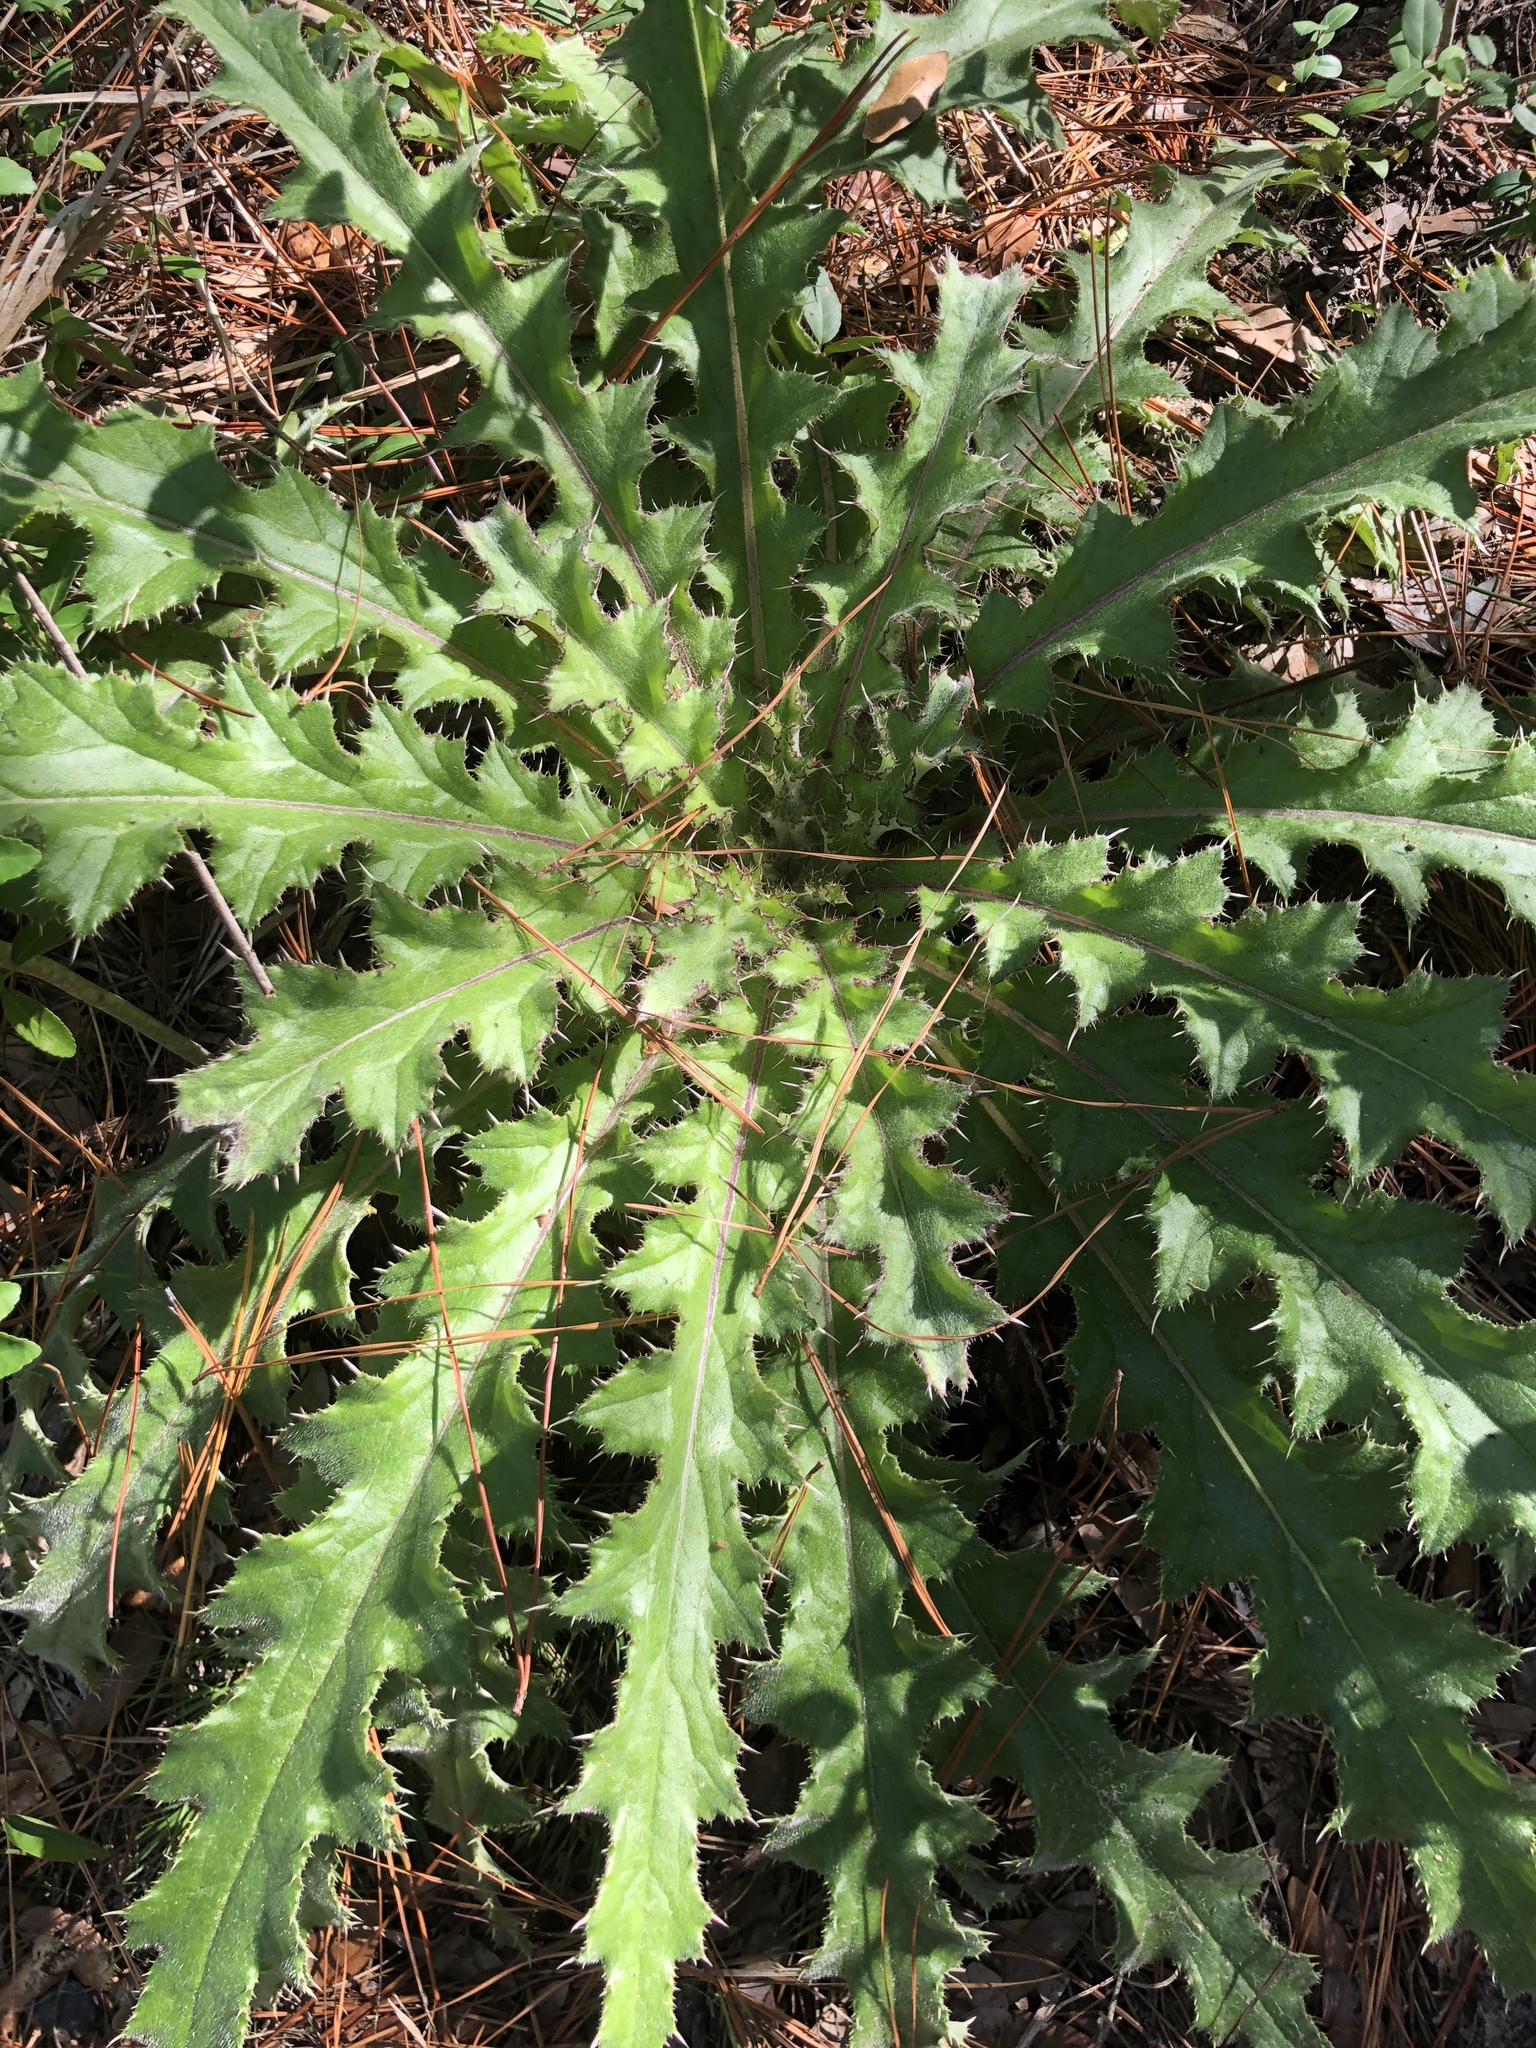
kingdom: Plantae
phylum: Tracheophyta
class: Magnoliopsida
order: Asterales
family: Asteraceae
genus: Cirsium
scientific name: Cirsium horridulum
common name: Bristly thistle
